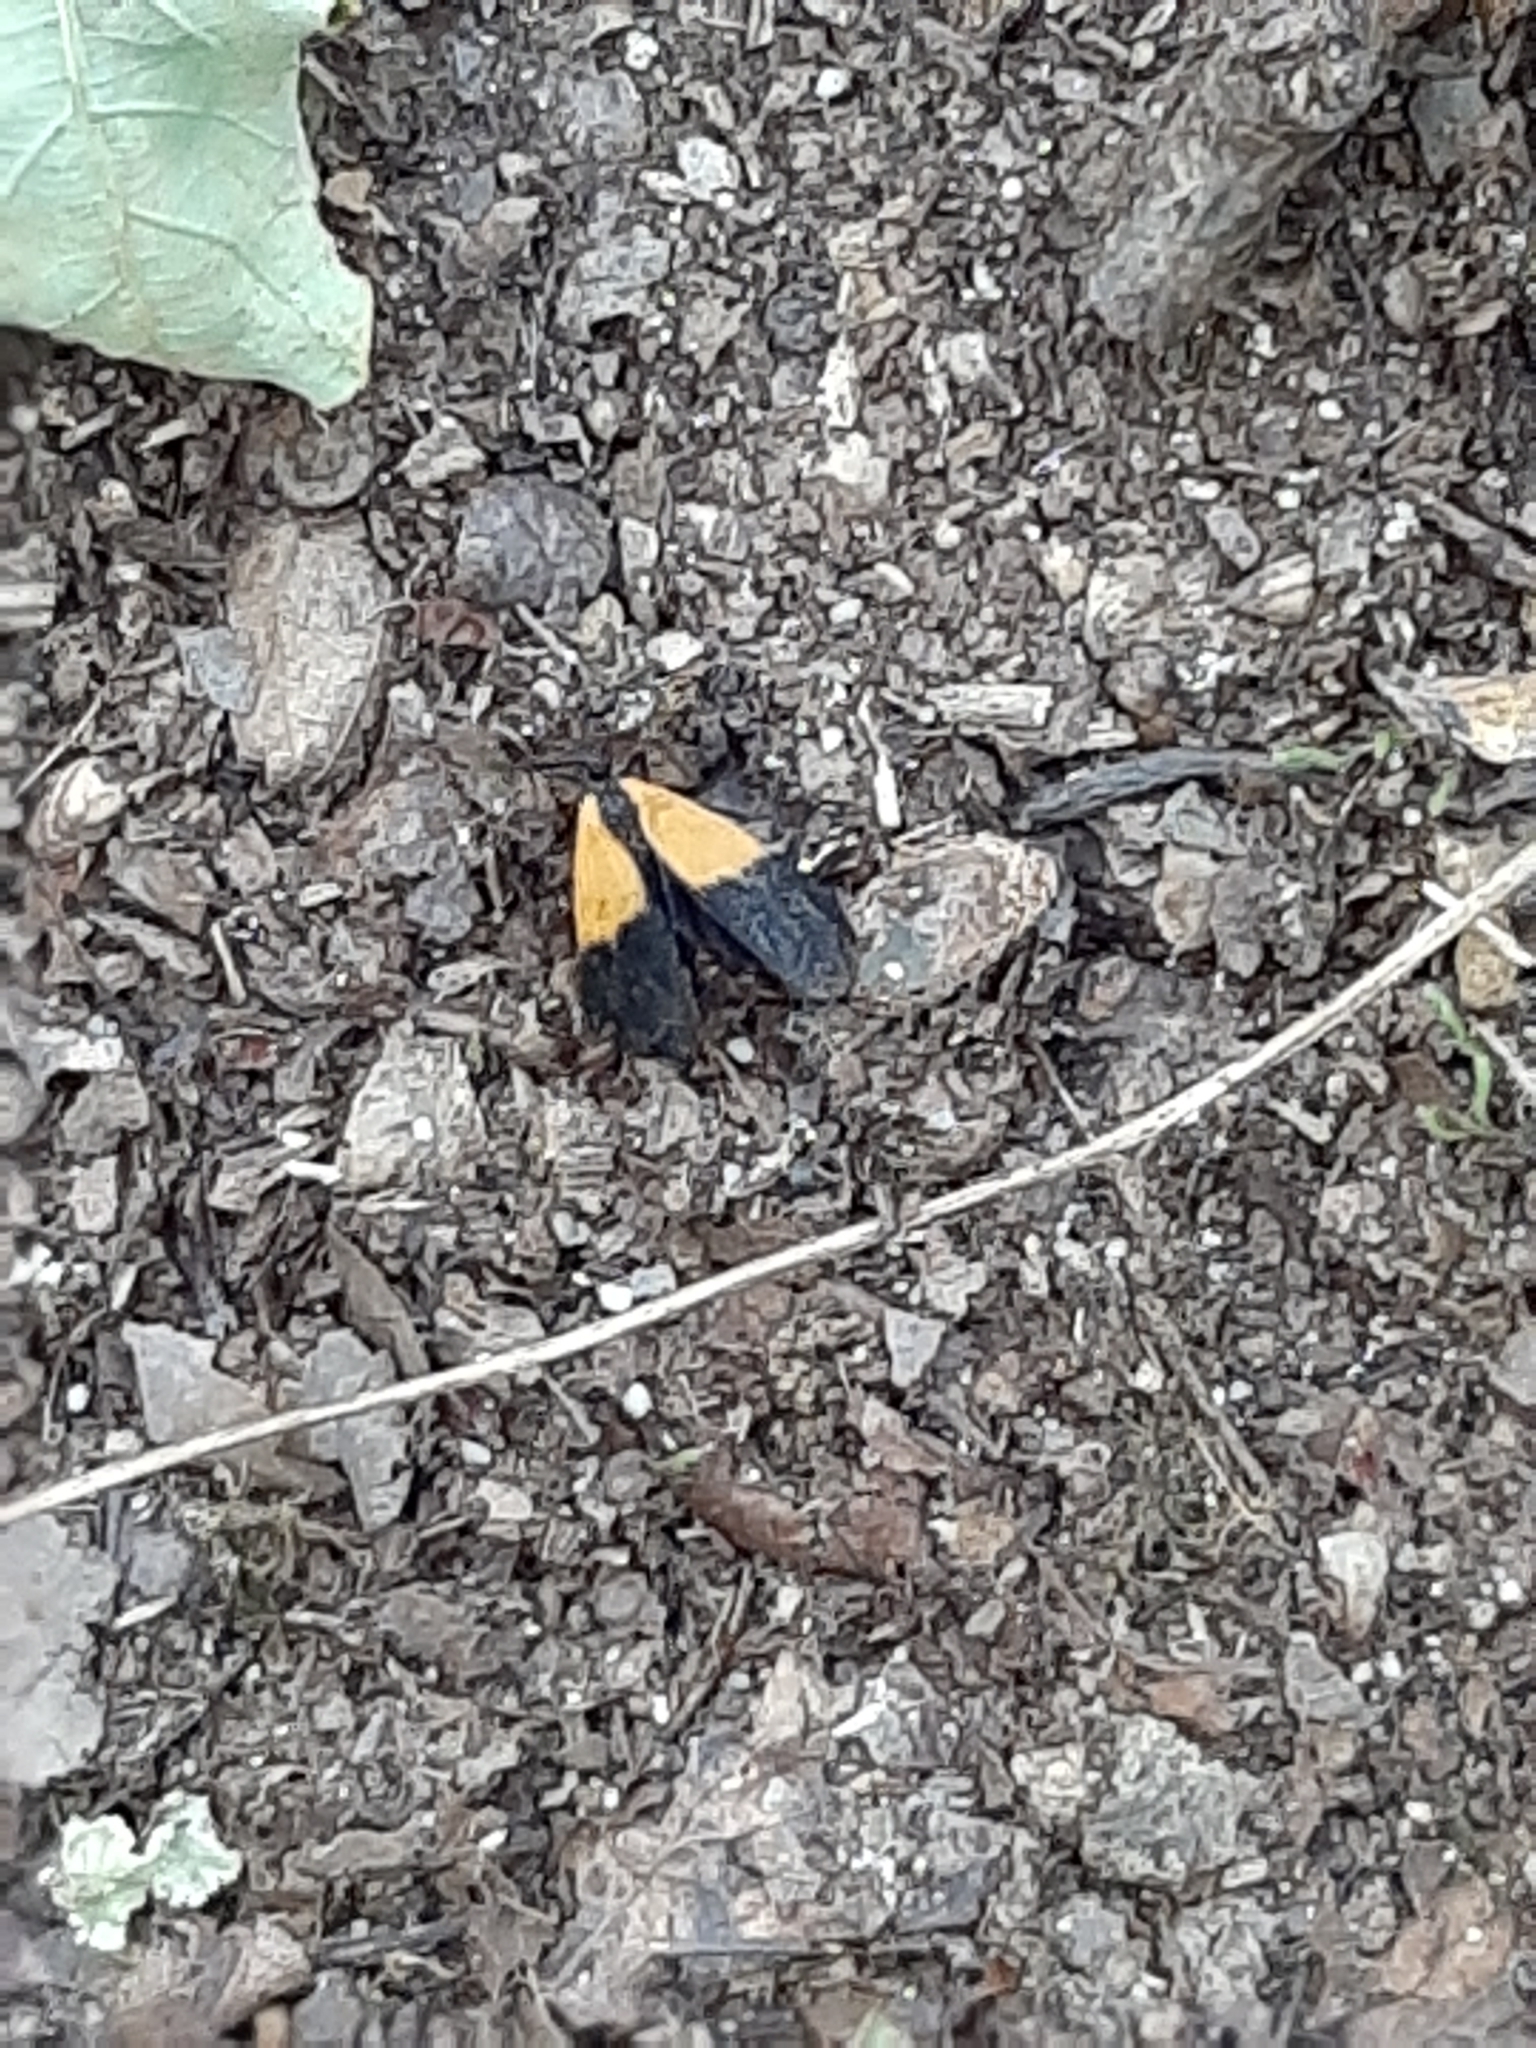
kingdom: Animalia
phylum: Arthropoda
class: Insecta
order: Lepidoptera
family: Erebidae
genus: Lycomorpha
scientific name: Lycomorpha pholus
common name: Black-and-yellow lichen moth
